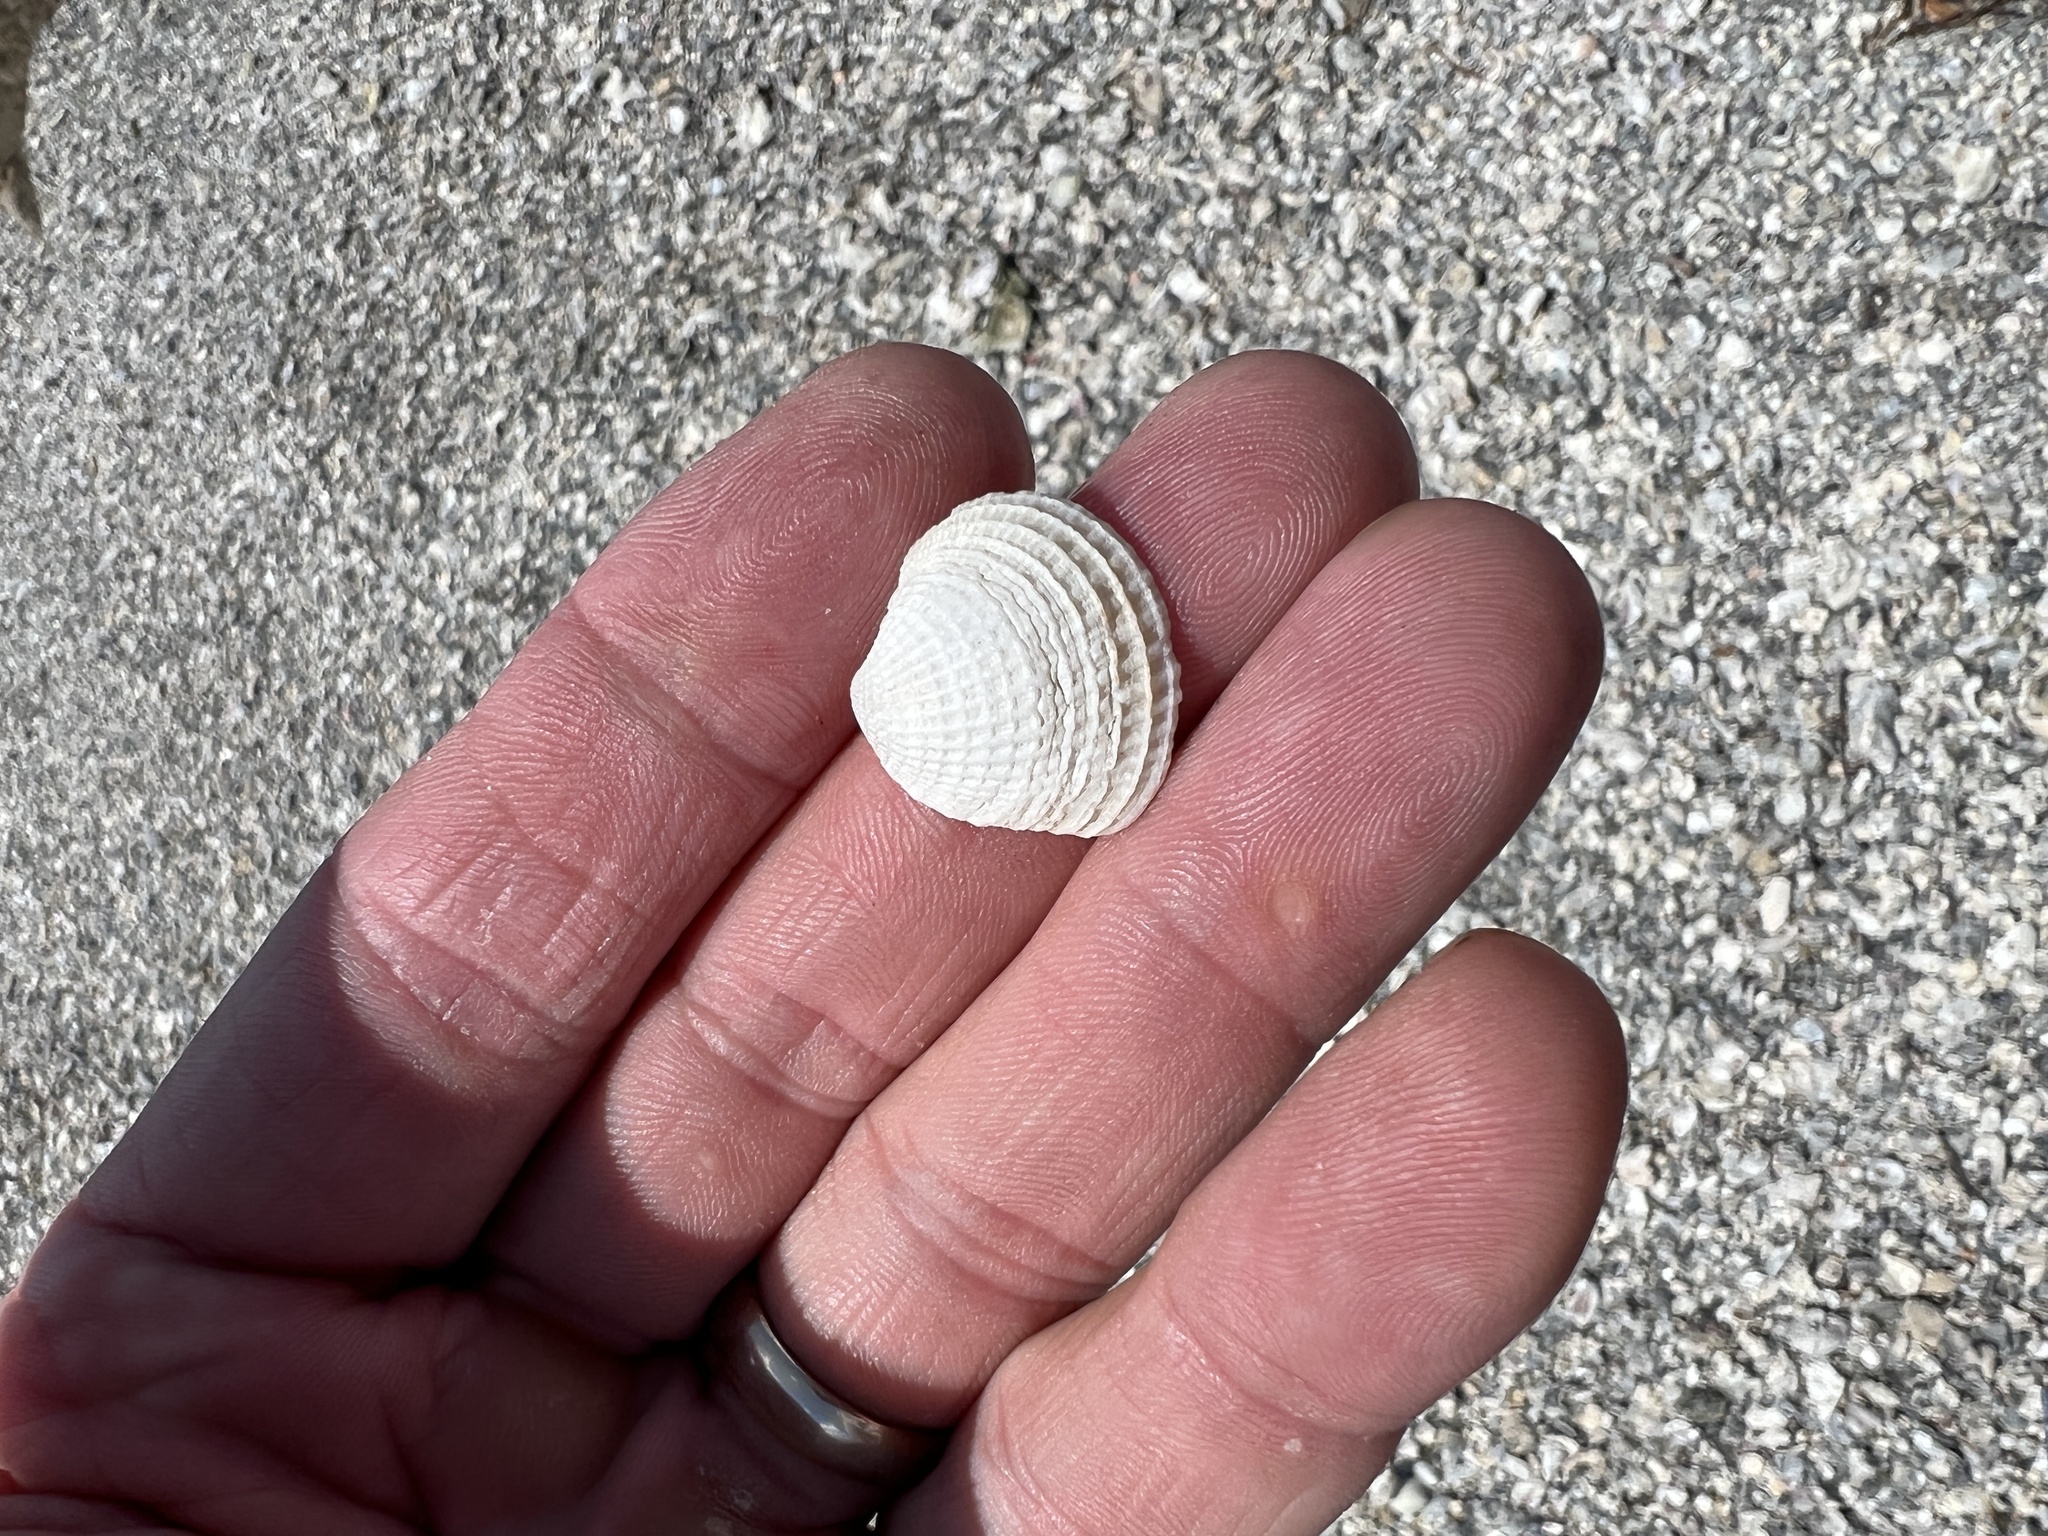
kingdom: Animalia
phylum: Mollusca
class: Bivalvia
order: Venerida
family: Veneridae
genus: Chione
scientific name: Chione elevata
